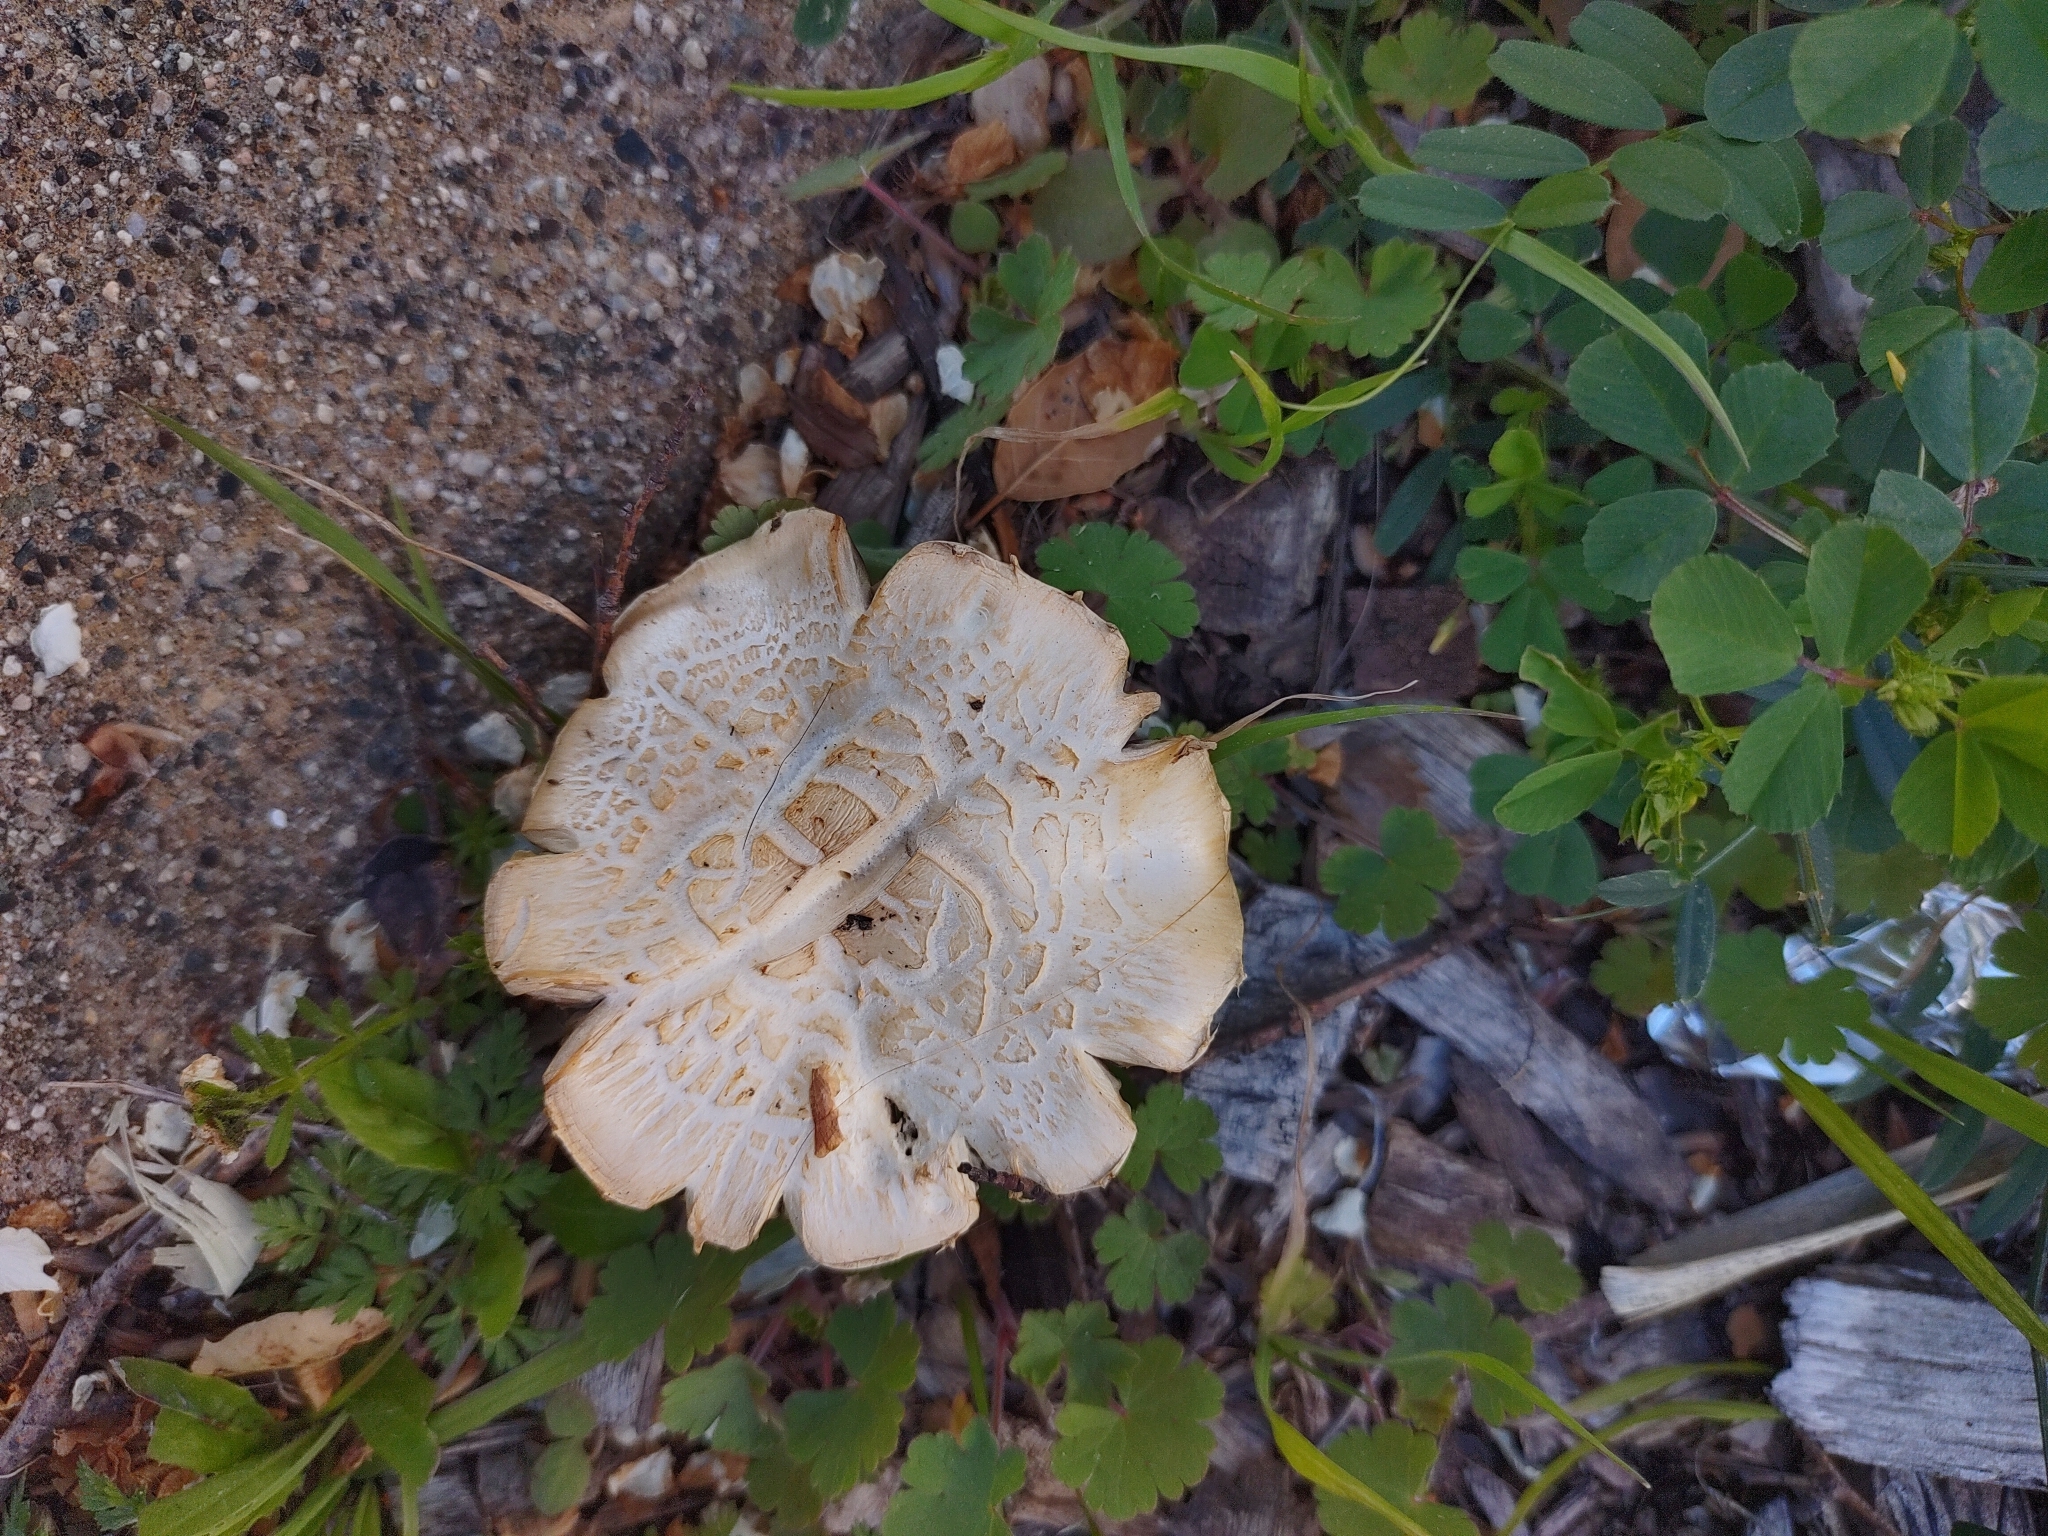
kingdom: Fungi
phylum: Basidiomycota
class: Agaricomycetes
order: Agaricales
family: Strophariaceae
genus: Leratiomyces
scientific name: Leratiomyces percevalii
